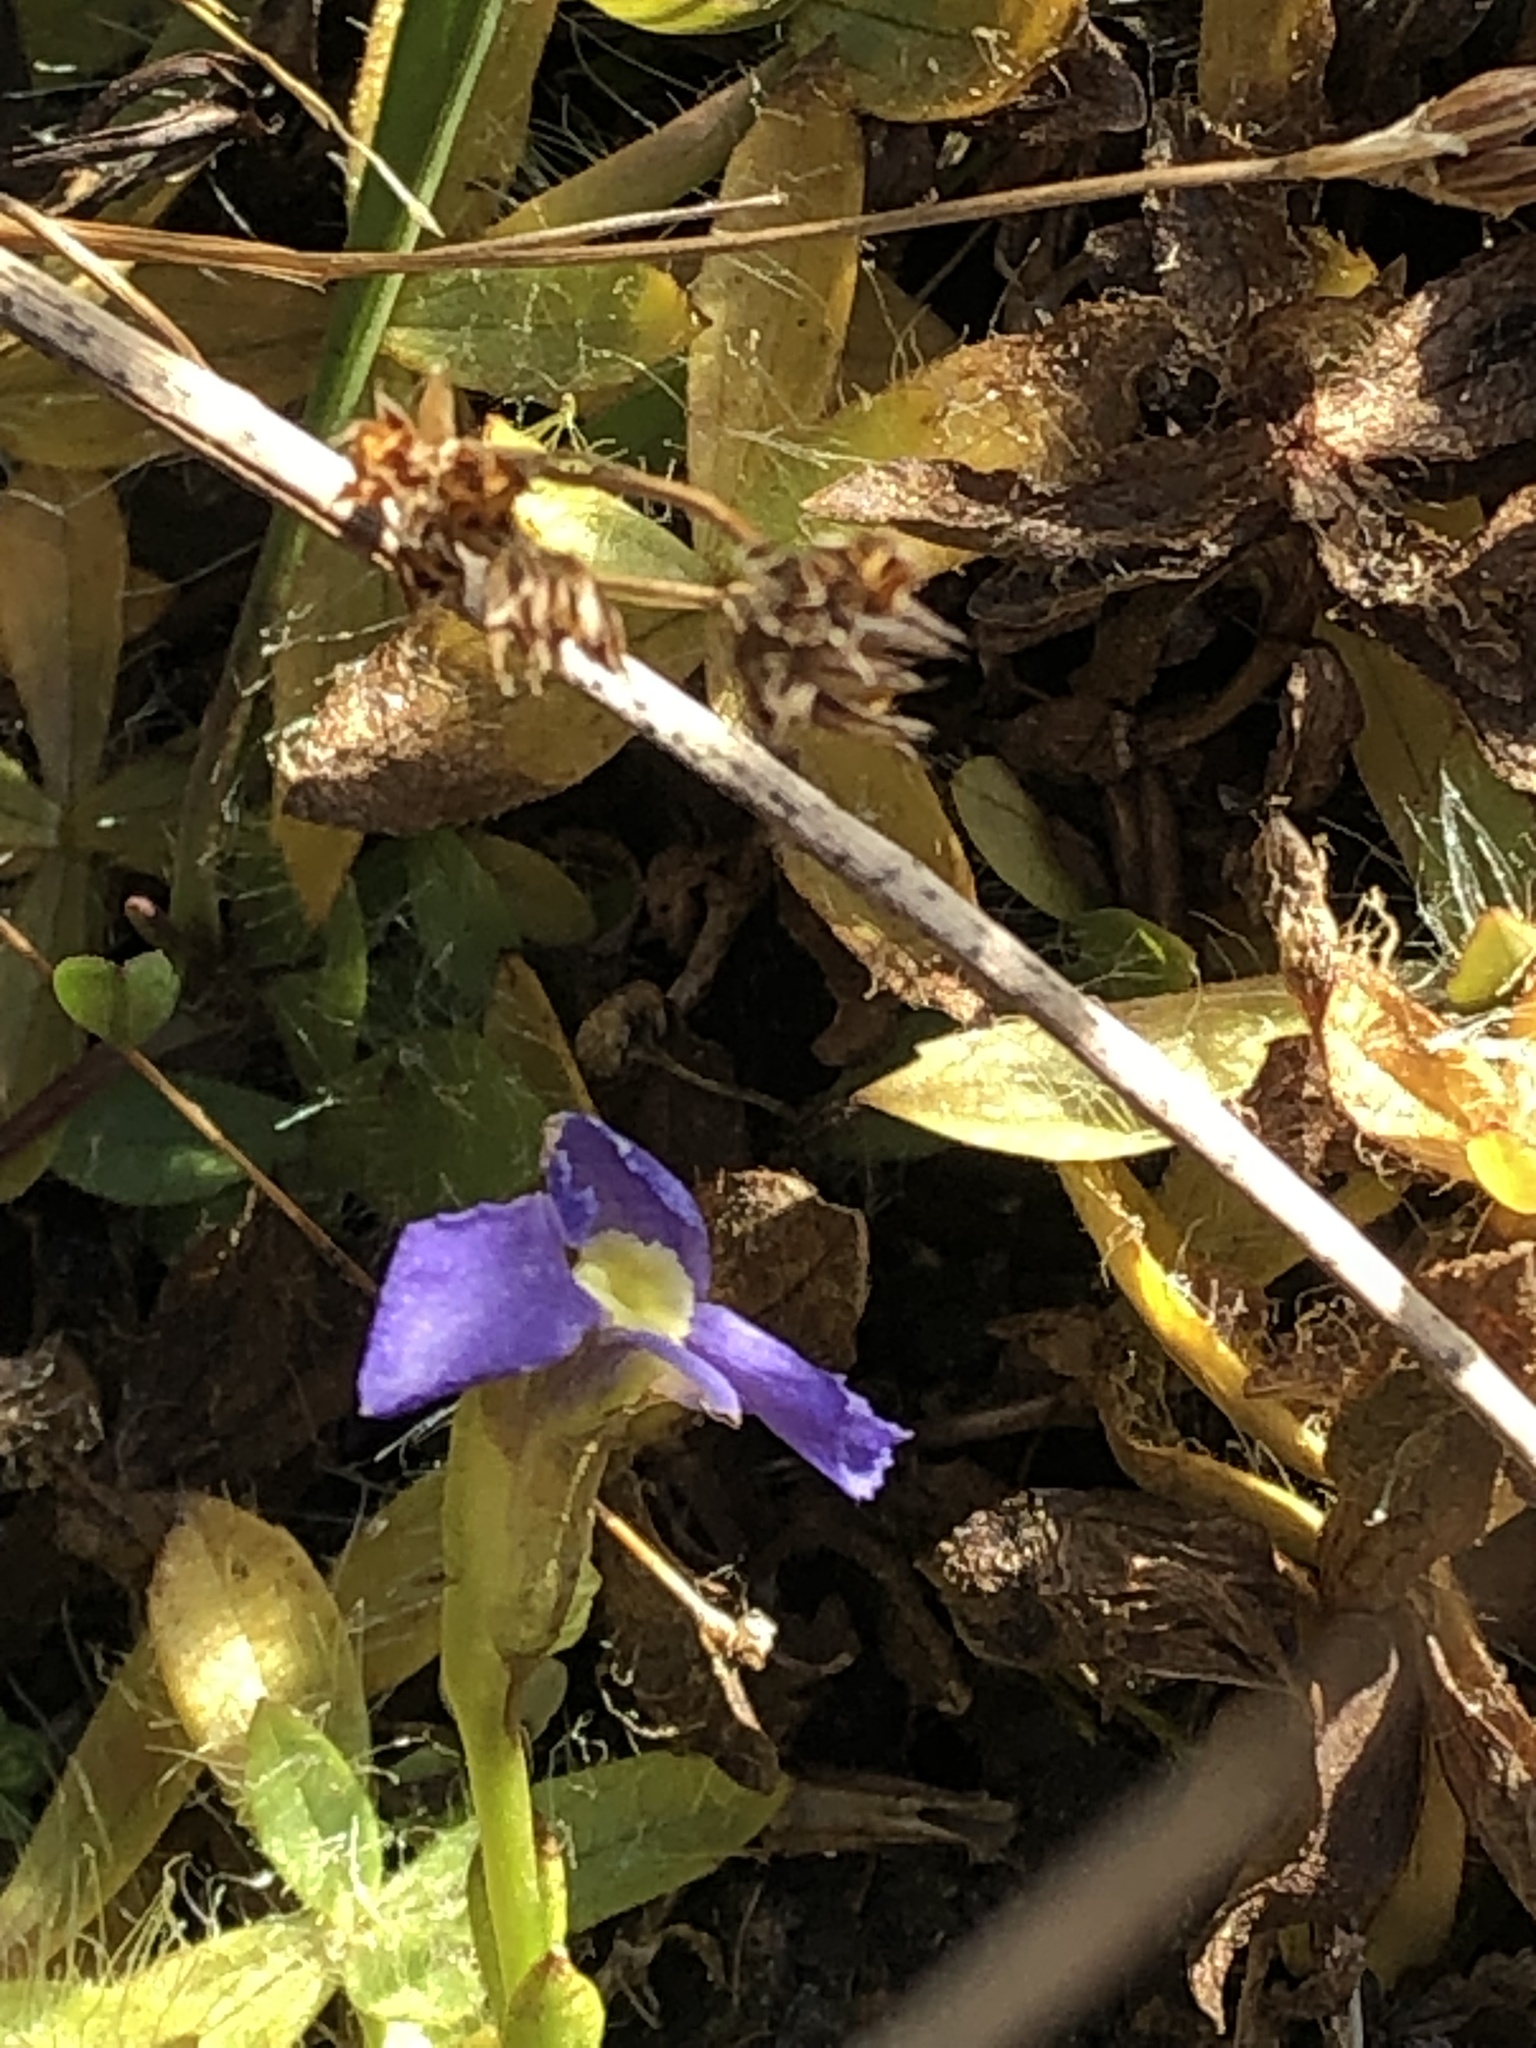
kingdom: Plantae
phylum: Tracheophyta
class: Magnoliopsida
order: Gentianales
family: Gentianaceae
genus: Gentianopsis
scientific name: Gentianopsis simplex
